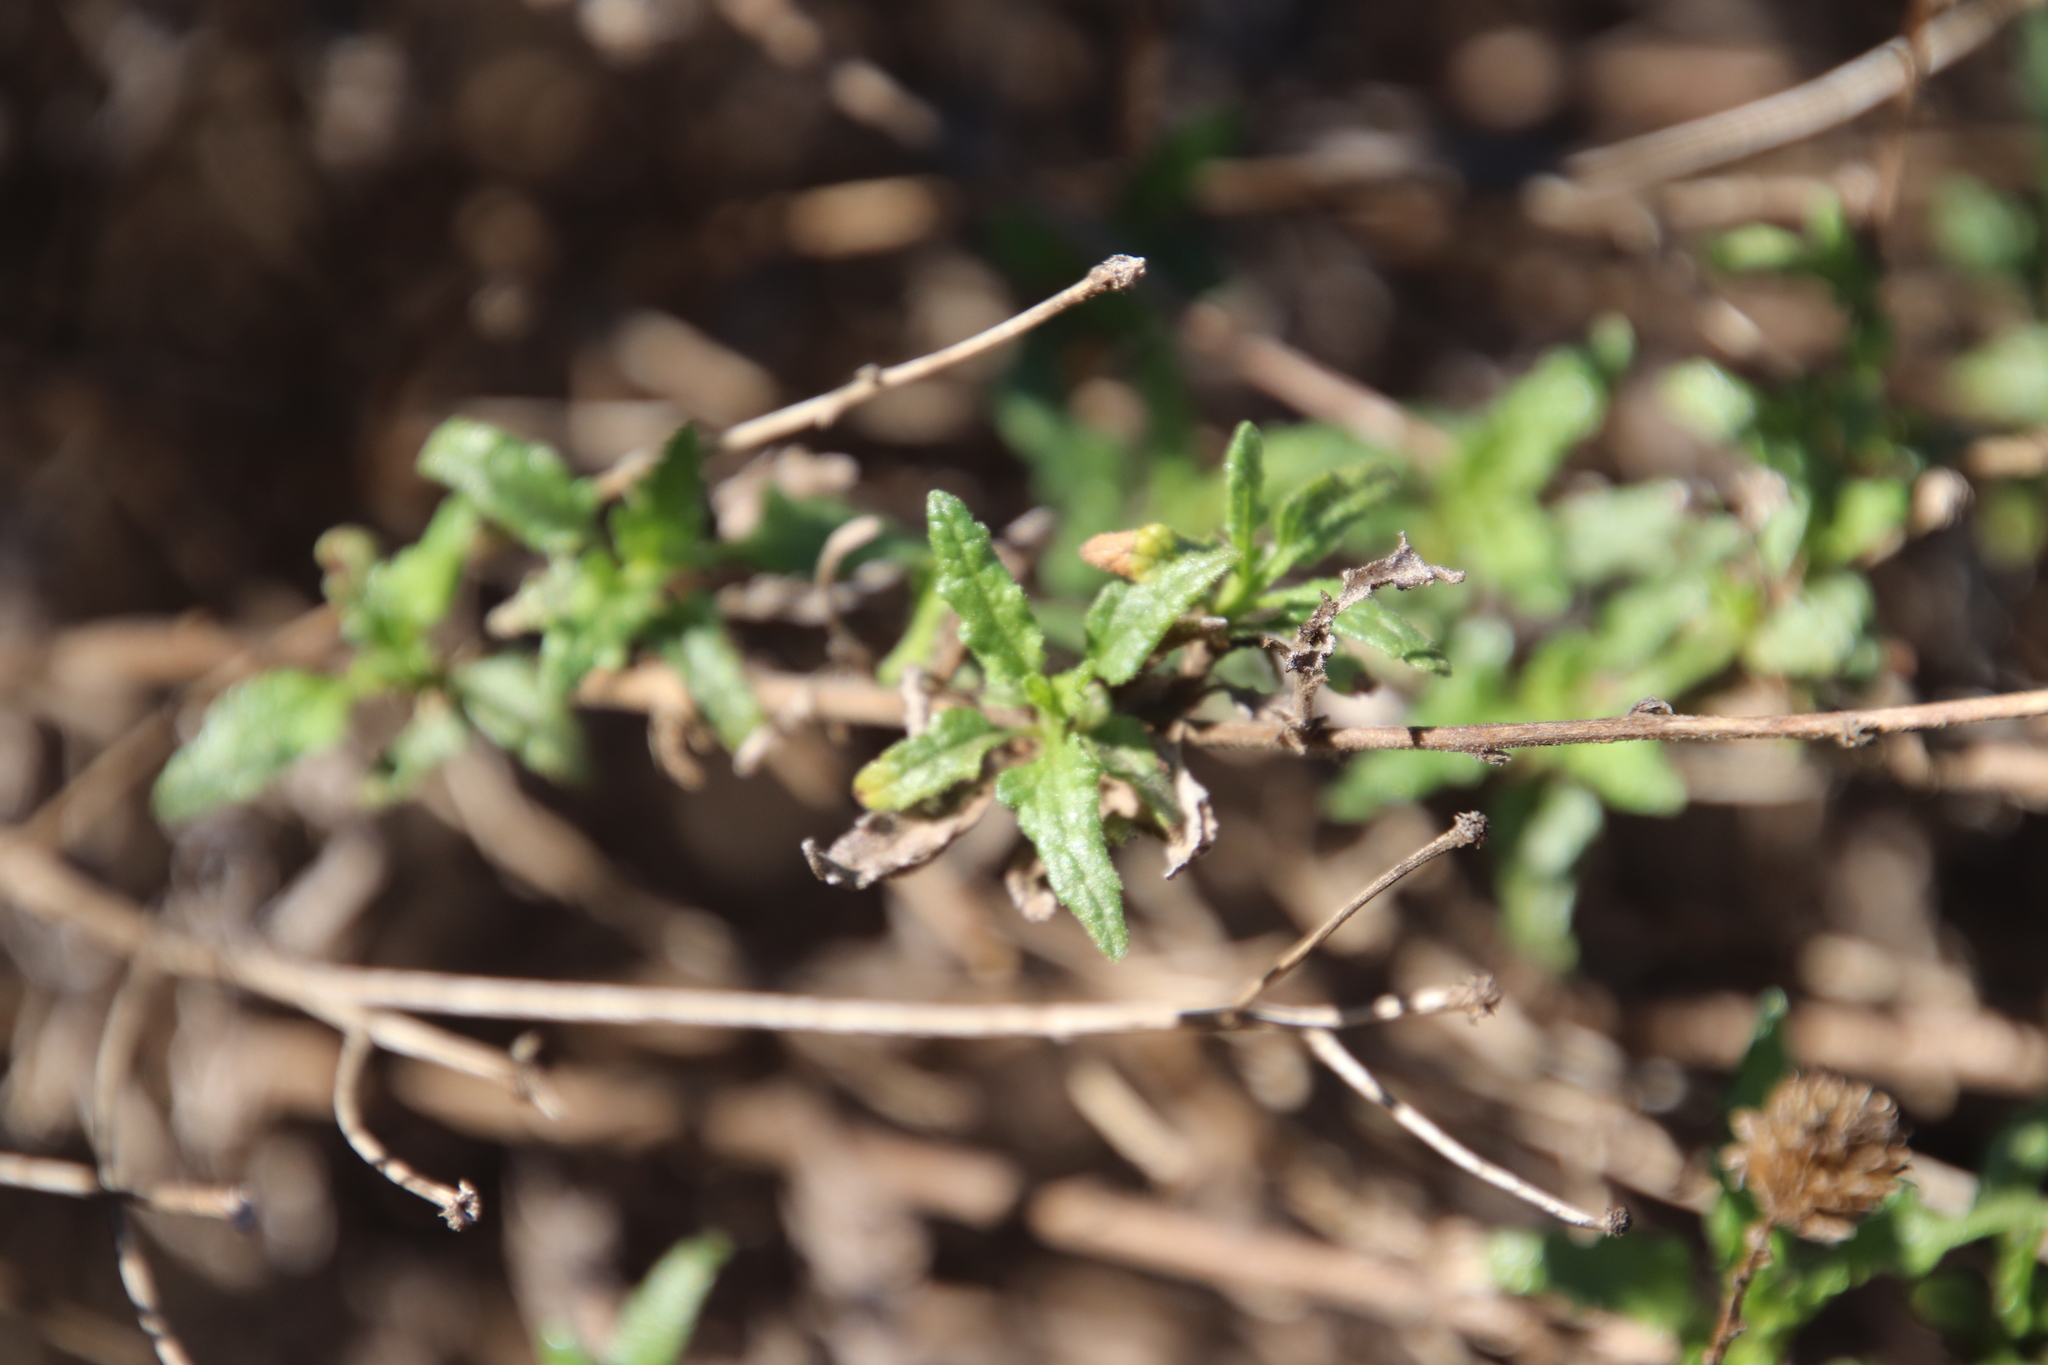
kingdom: Plantae
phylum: Tracheophyta
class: Magnoliopsida
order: Asterales
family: Asteraceae
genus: Bahiopsis
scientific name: Bahiopsis laciniata
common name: San diego county viguiera
